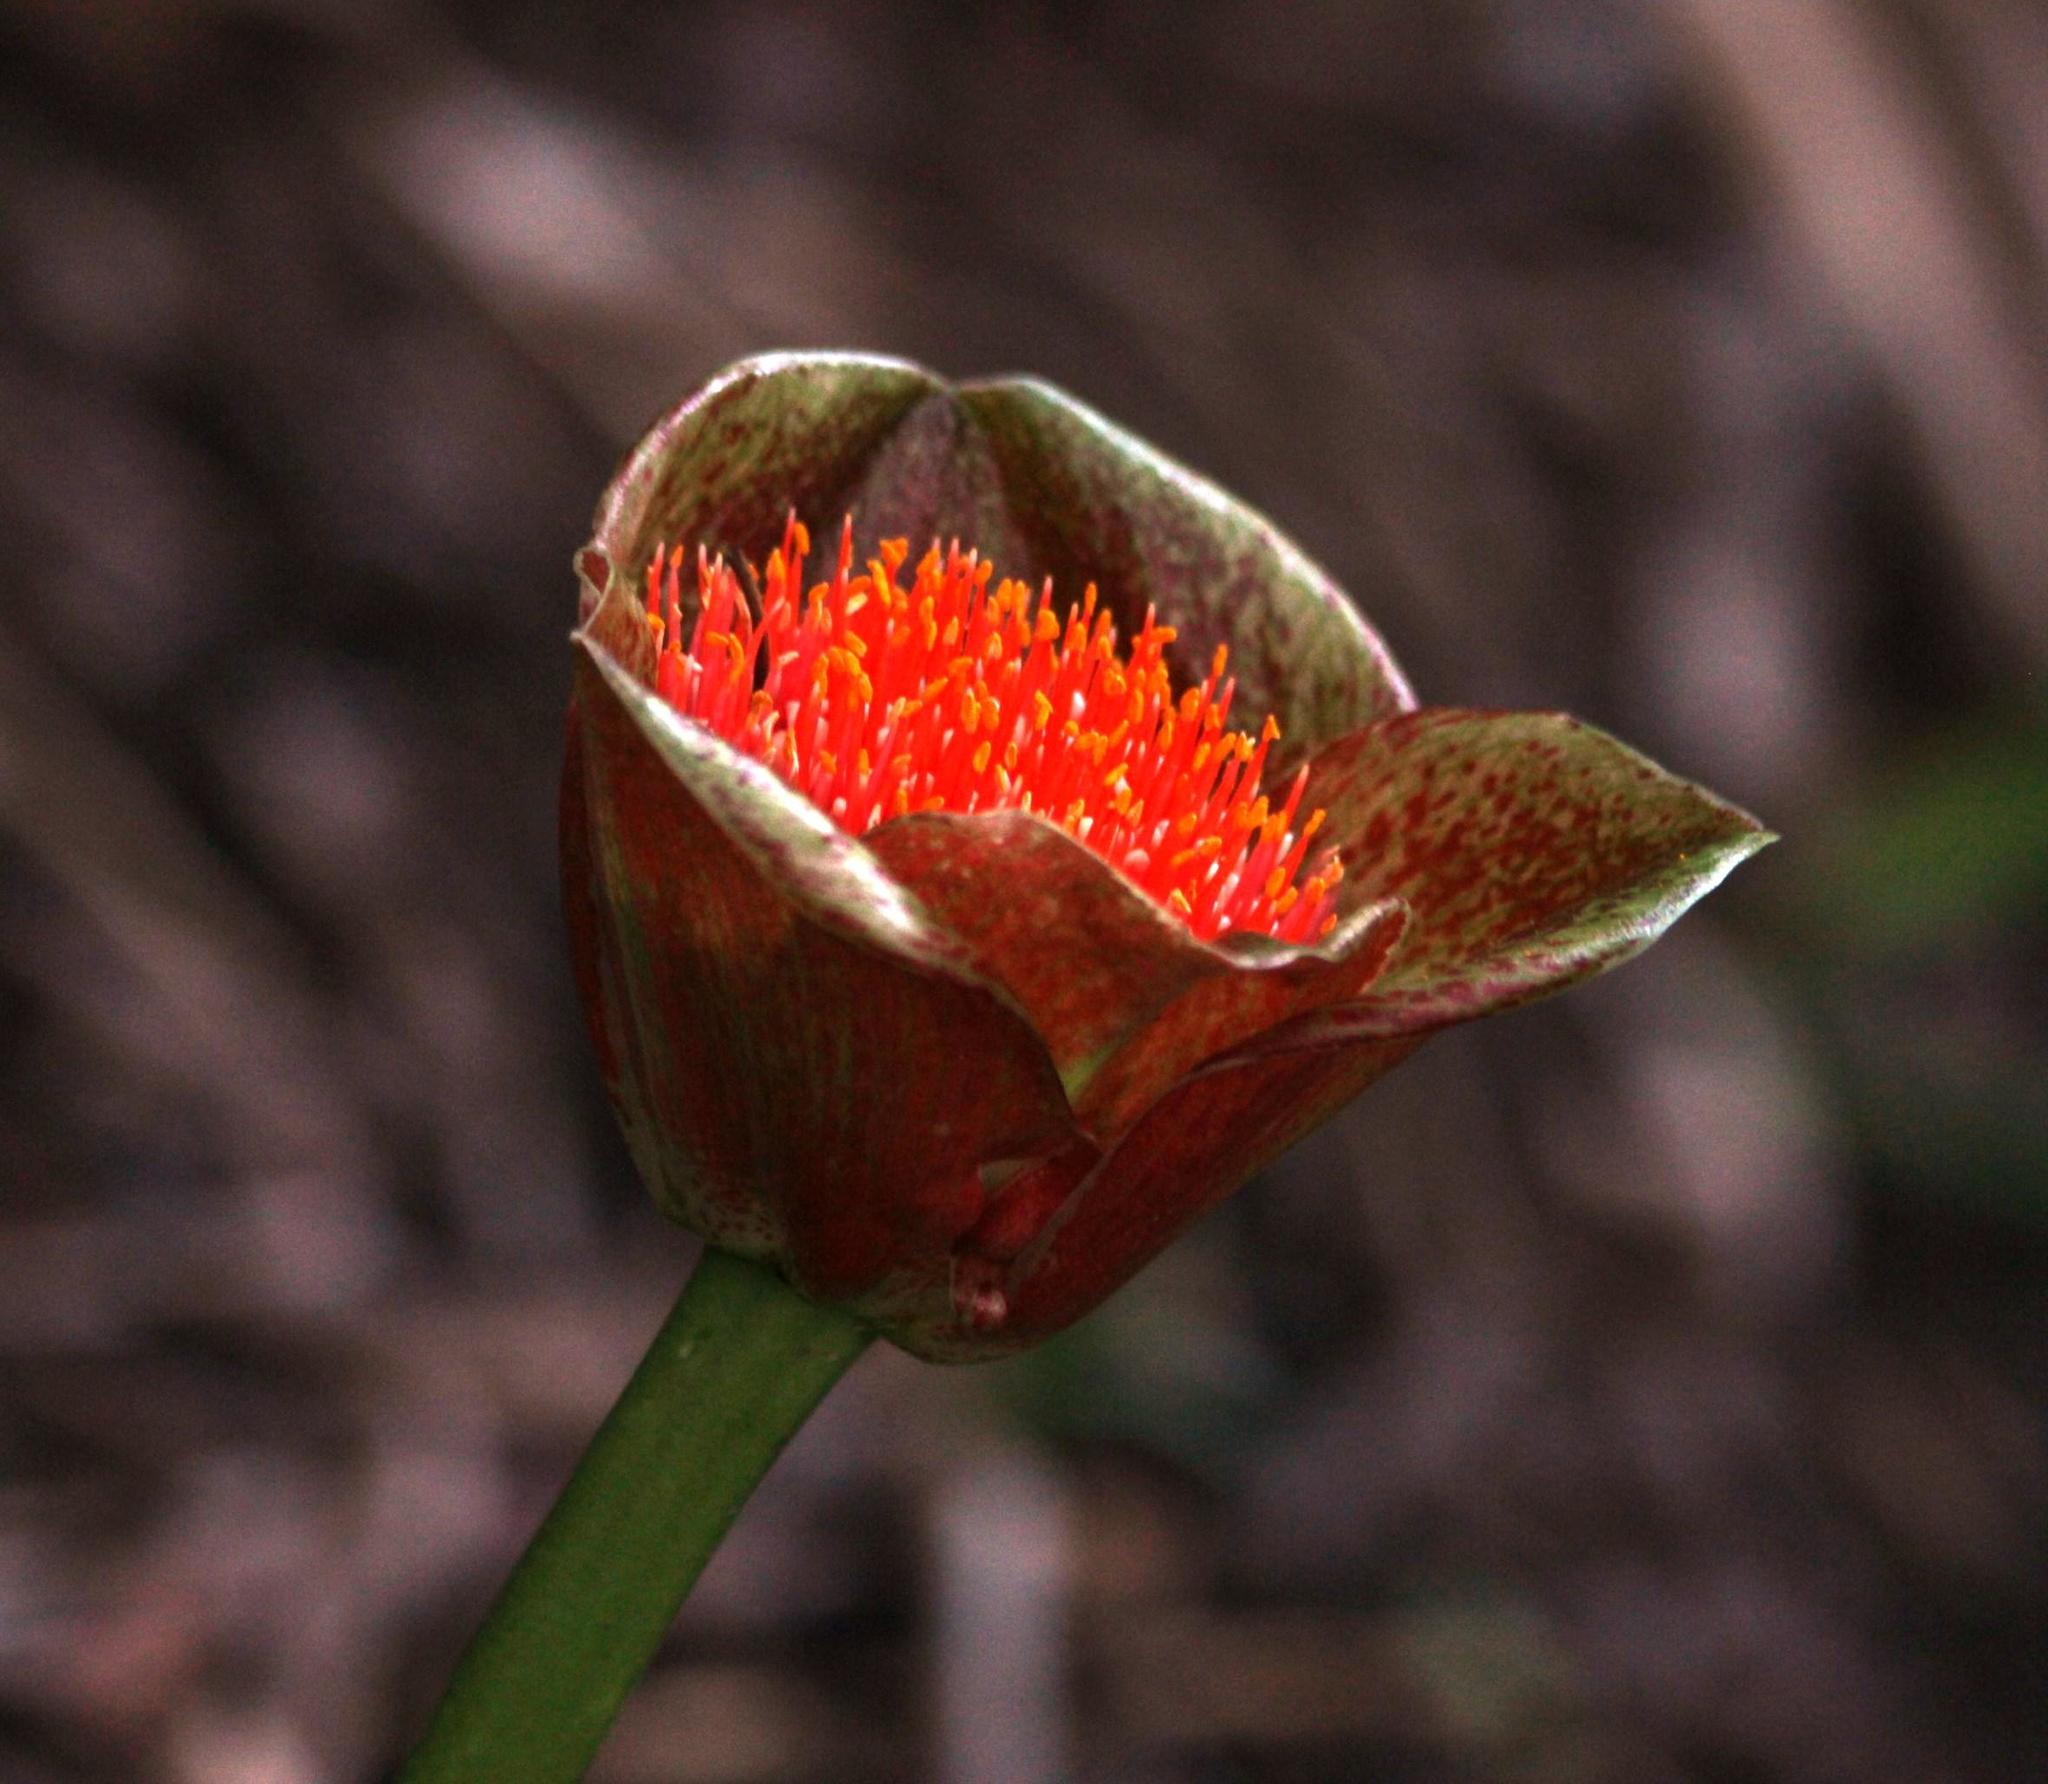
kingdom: Plantae
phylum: Tracheophyta
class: Liliopsida
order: Asparagales
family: Amaryllidaceae
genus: Scadoxus
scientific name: Scadoxus membranaceus
